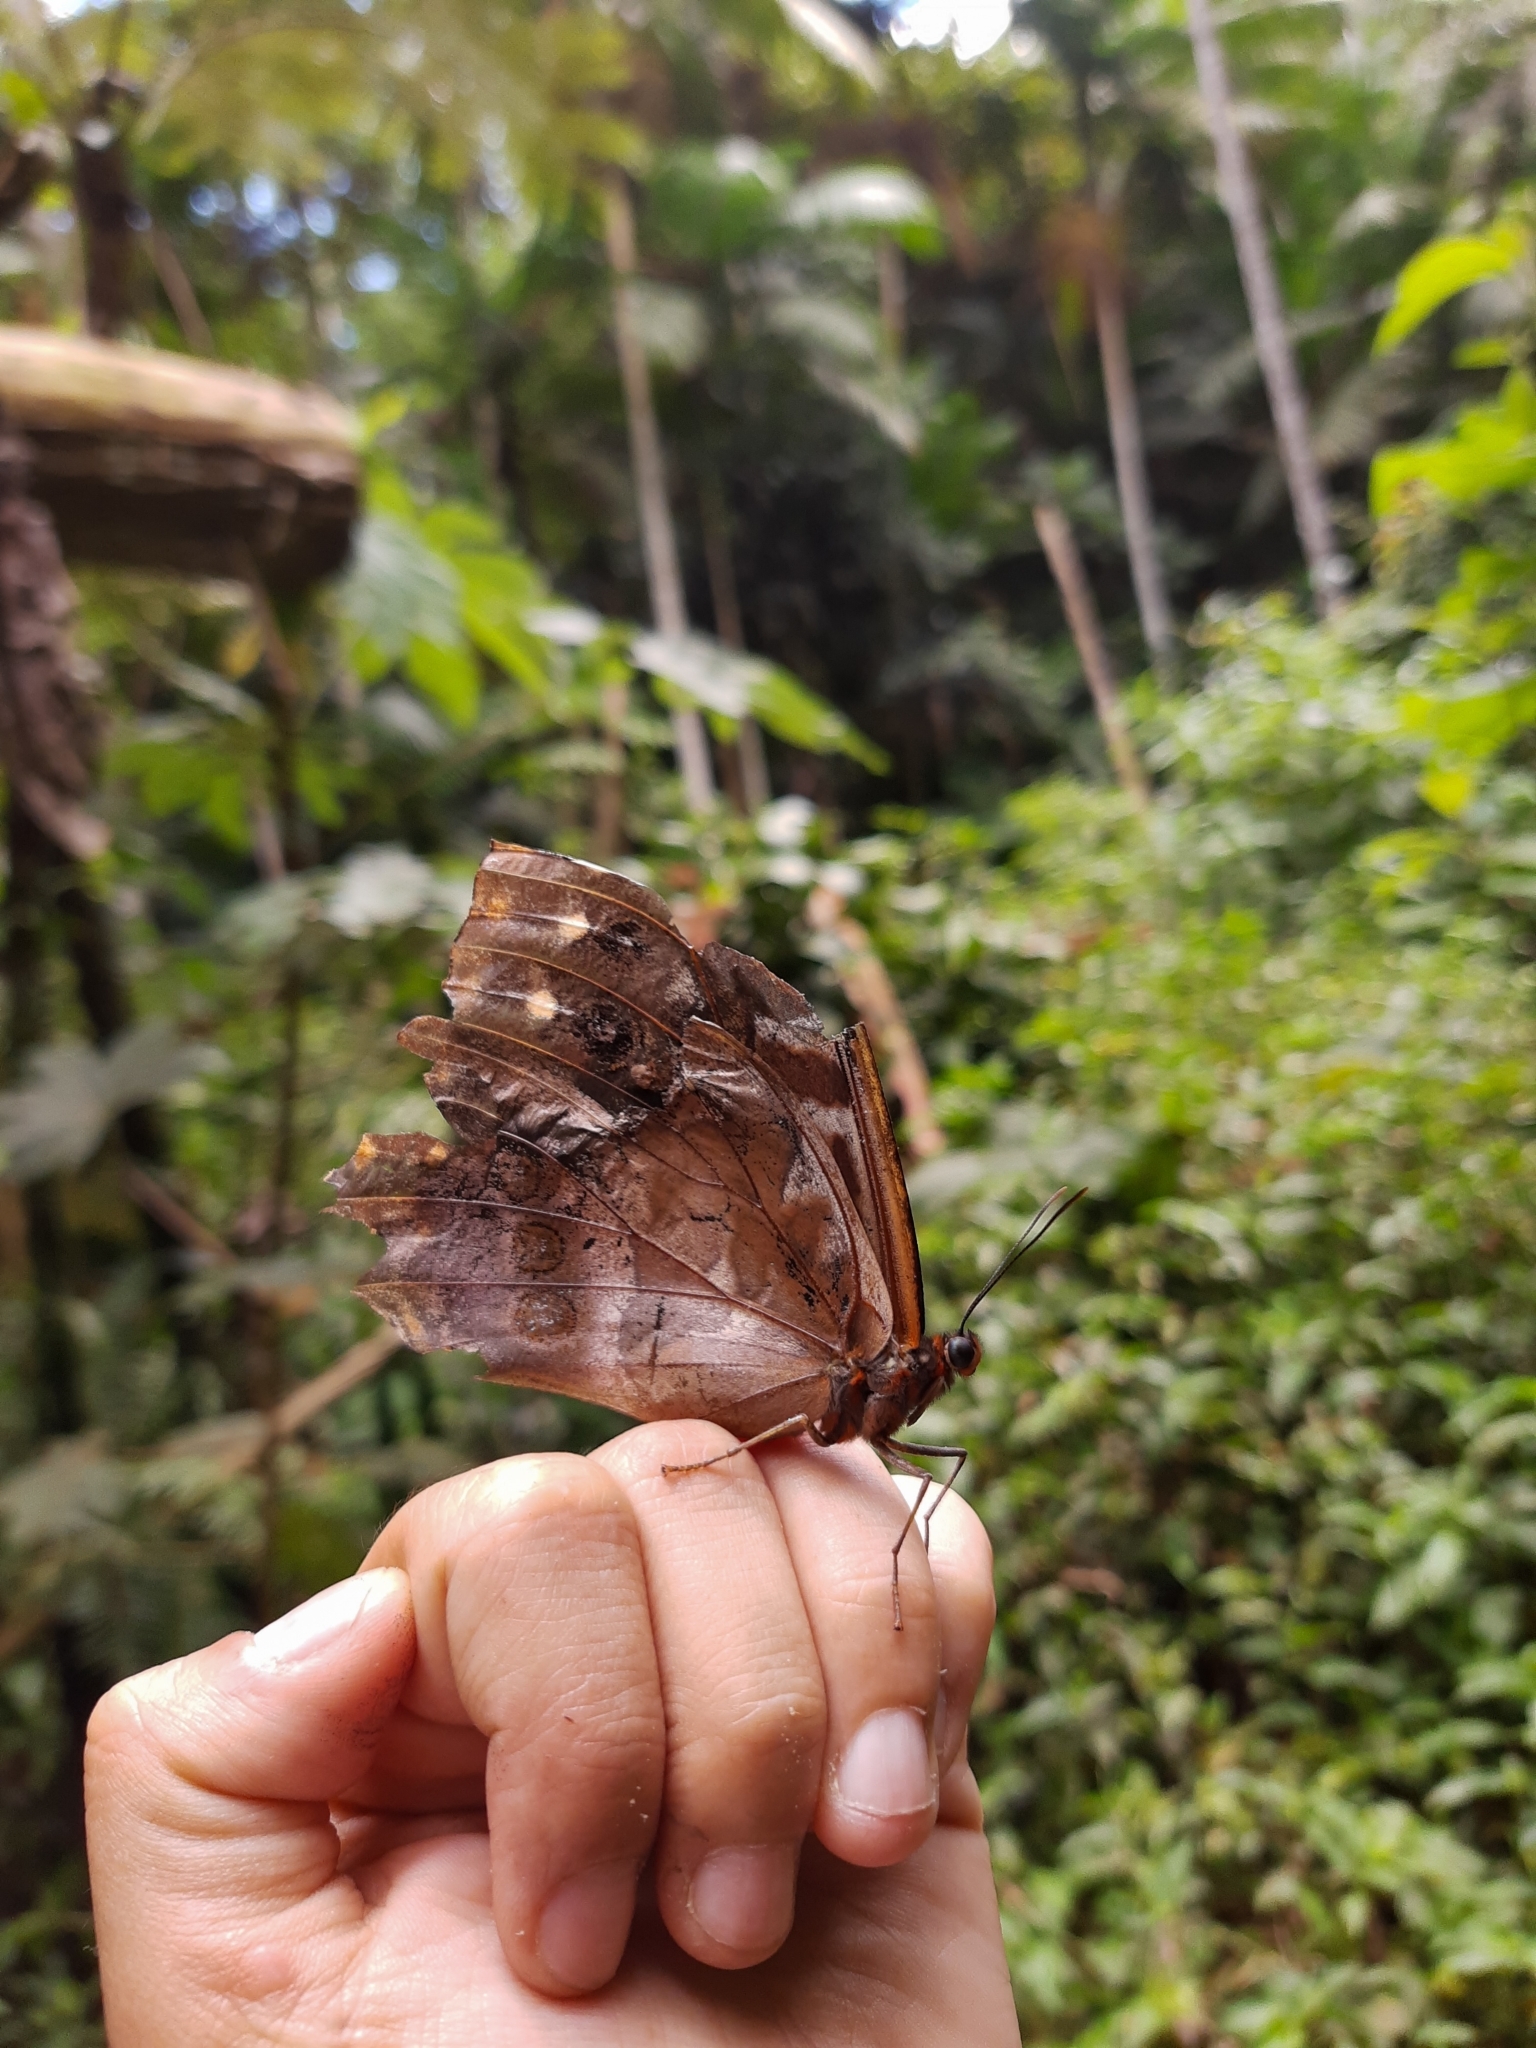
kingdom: Animalia
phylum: Arthropoda
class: Insecta
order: Lepidoptera
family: Nymphalidae
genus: Morpho
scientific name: Morpho hercules
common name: Hercules morpho
